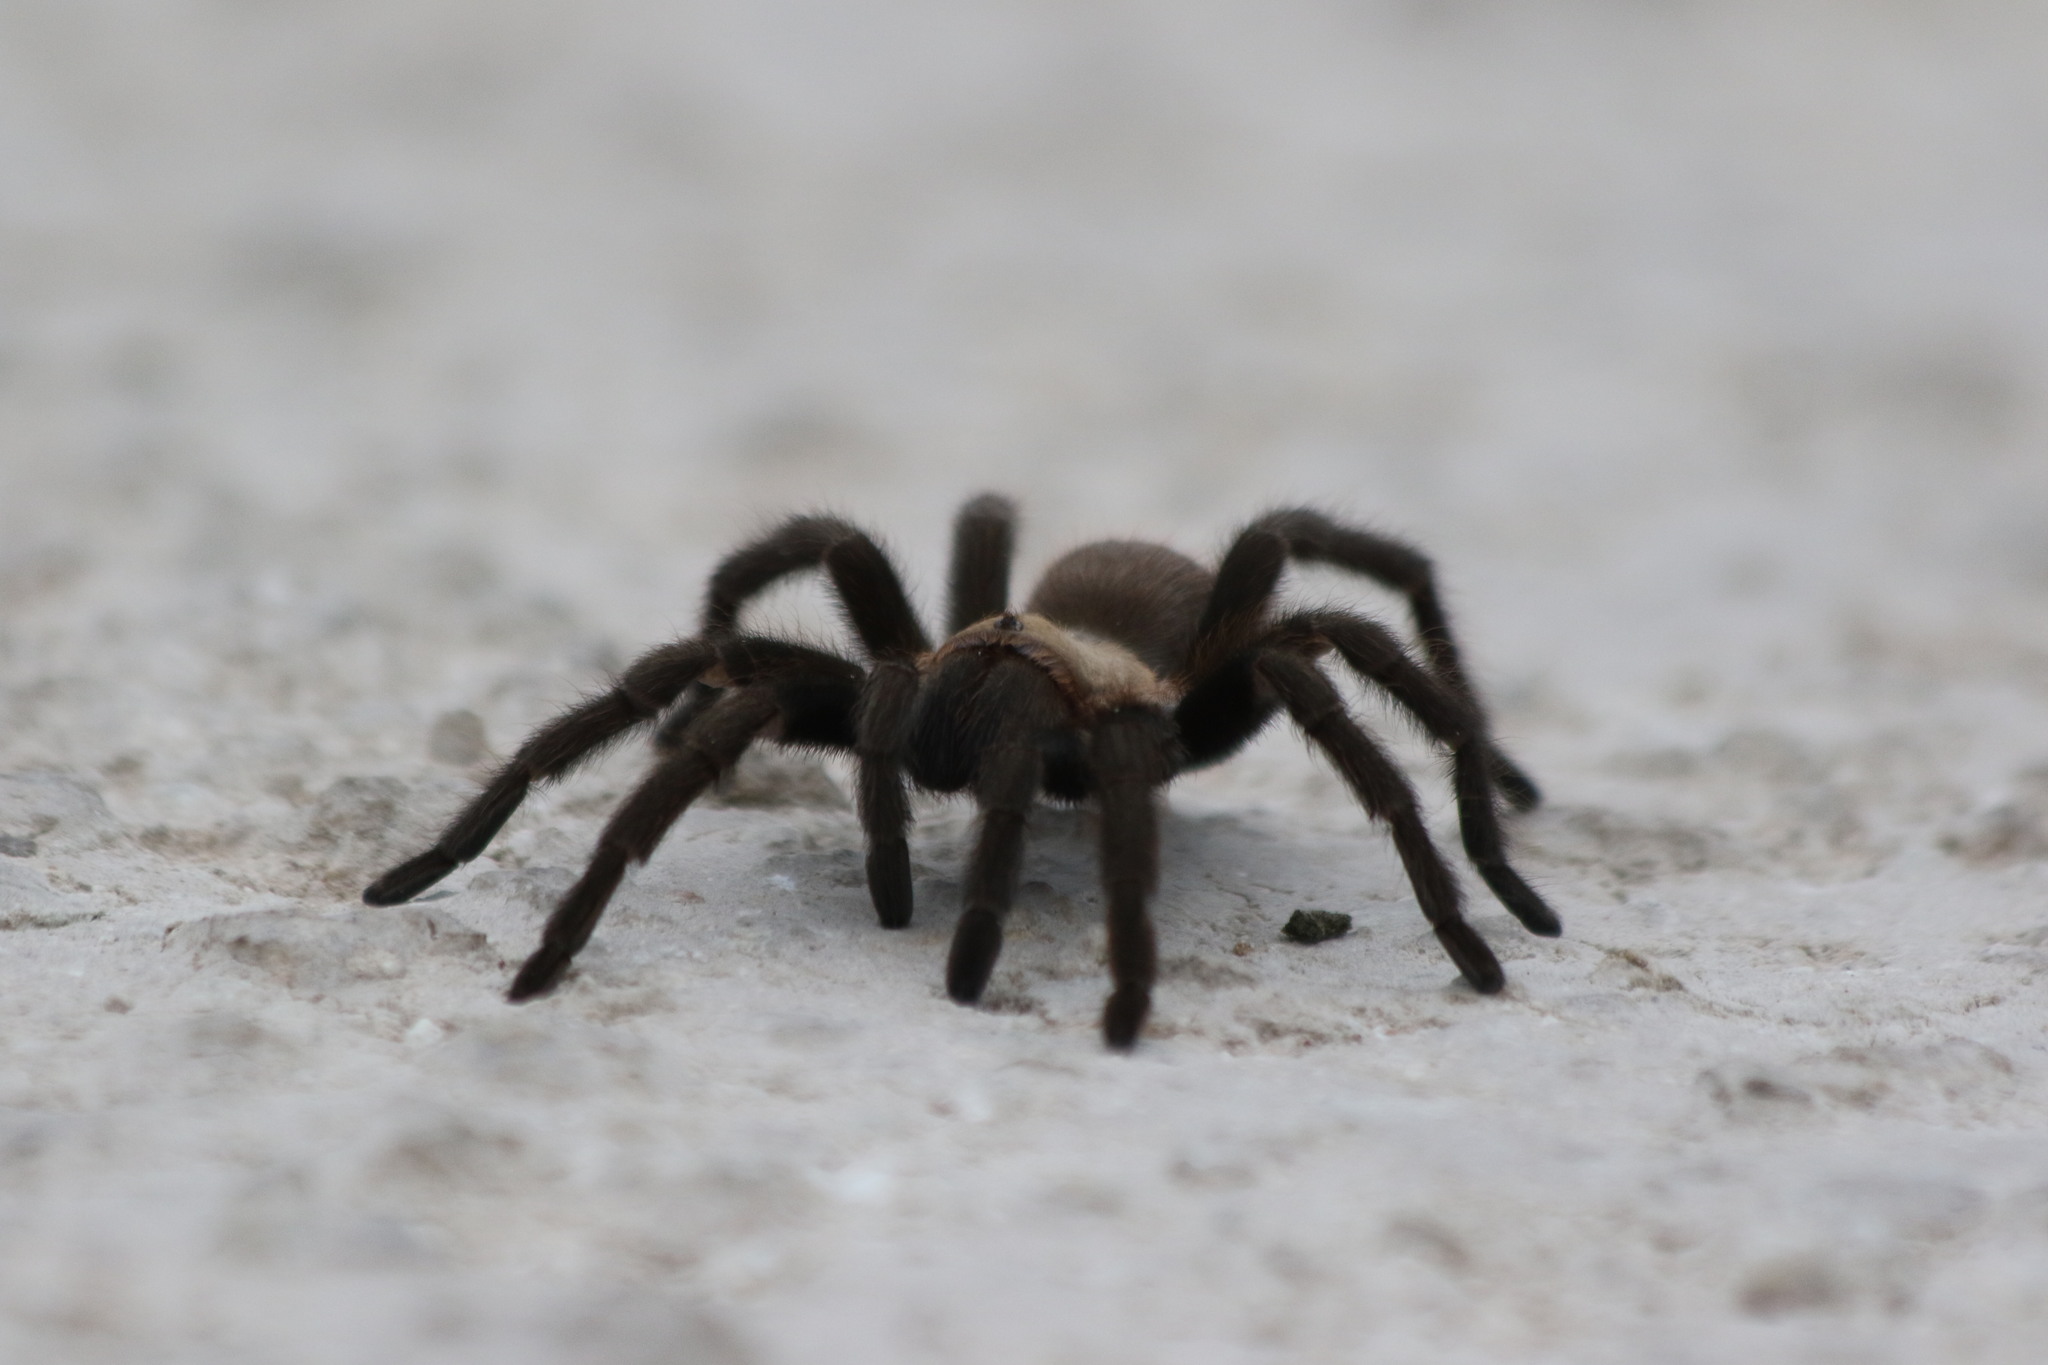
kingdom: Animalia
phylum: Arthropoda
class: Arachnida
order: Araneae
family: Theraphosidae
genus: Aphonopelma
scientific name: Aphonopelma anax
